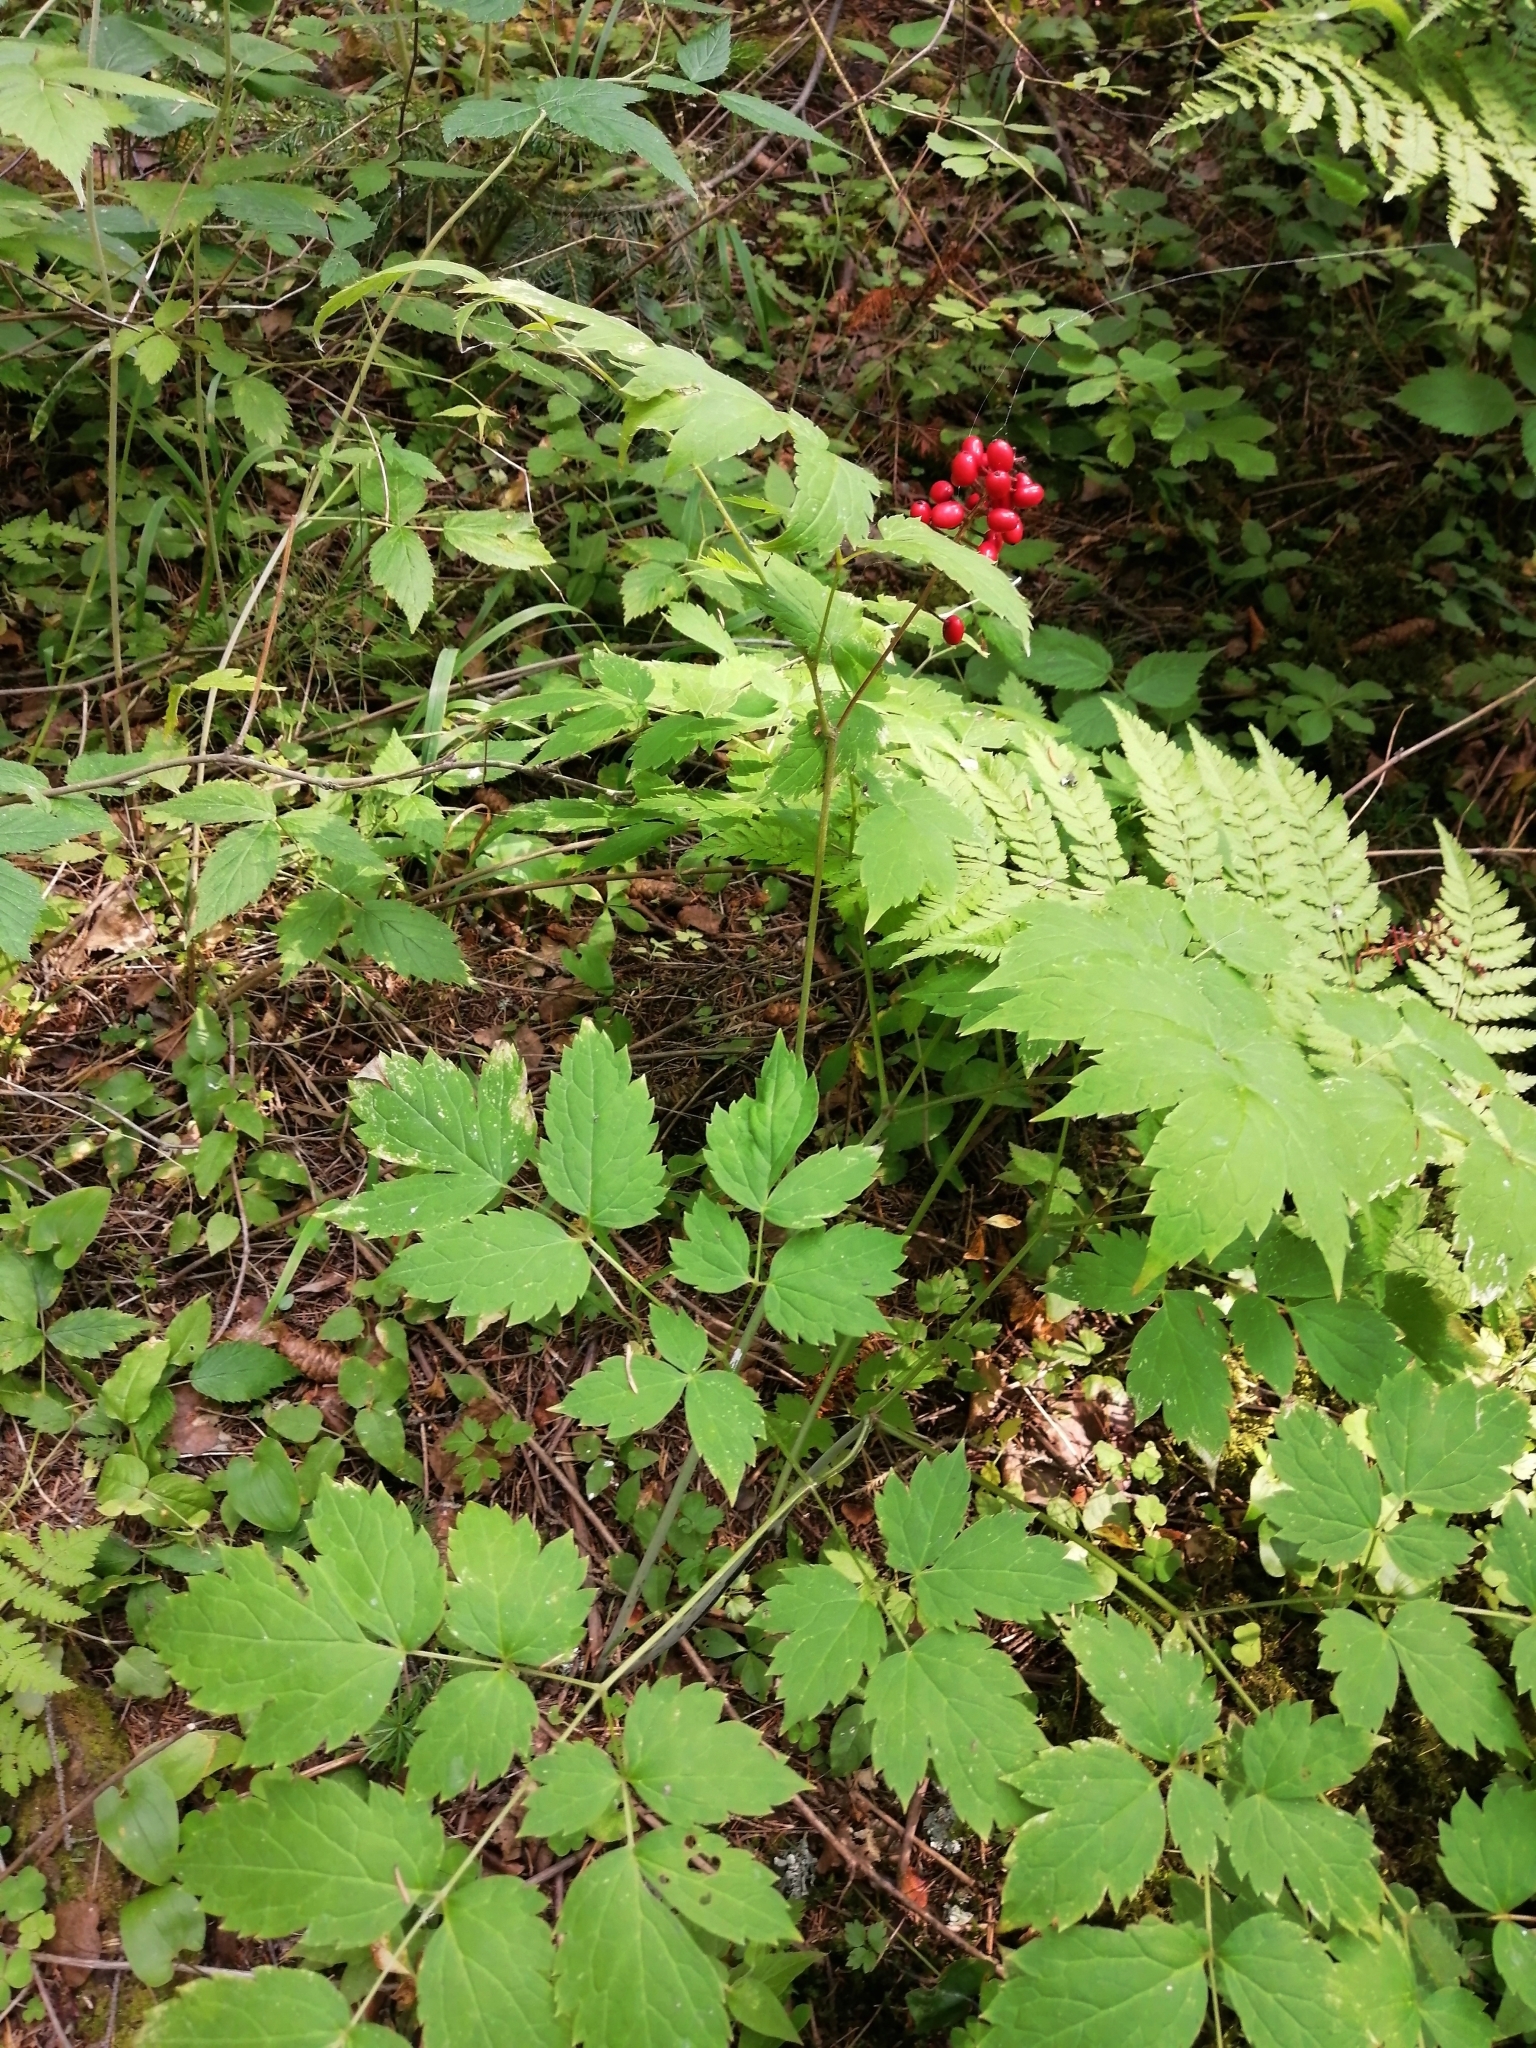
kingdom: Plantae
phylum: Tracheophyta
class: Magnoliopsida
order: Ranunculales
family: Ranunculaceae
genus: Actaea
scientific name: Actaea erythrocarpa
